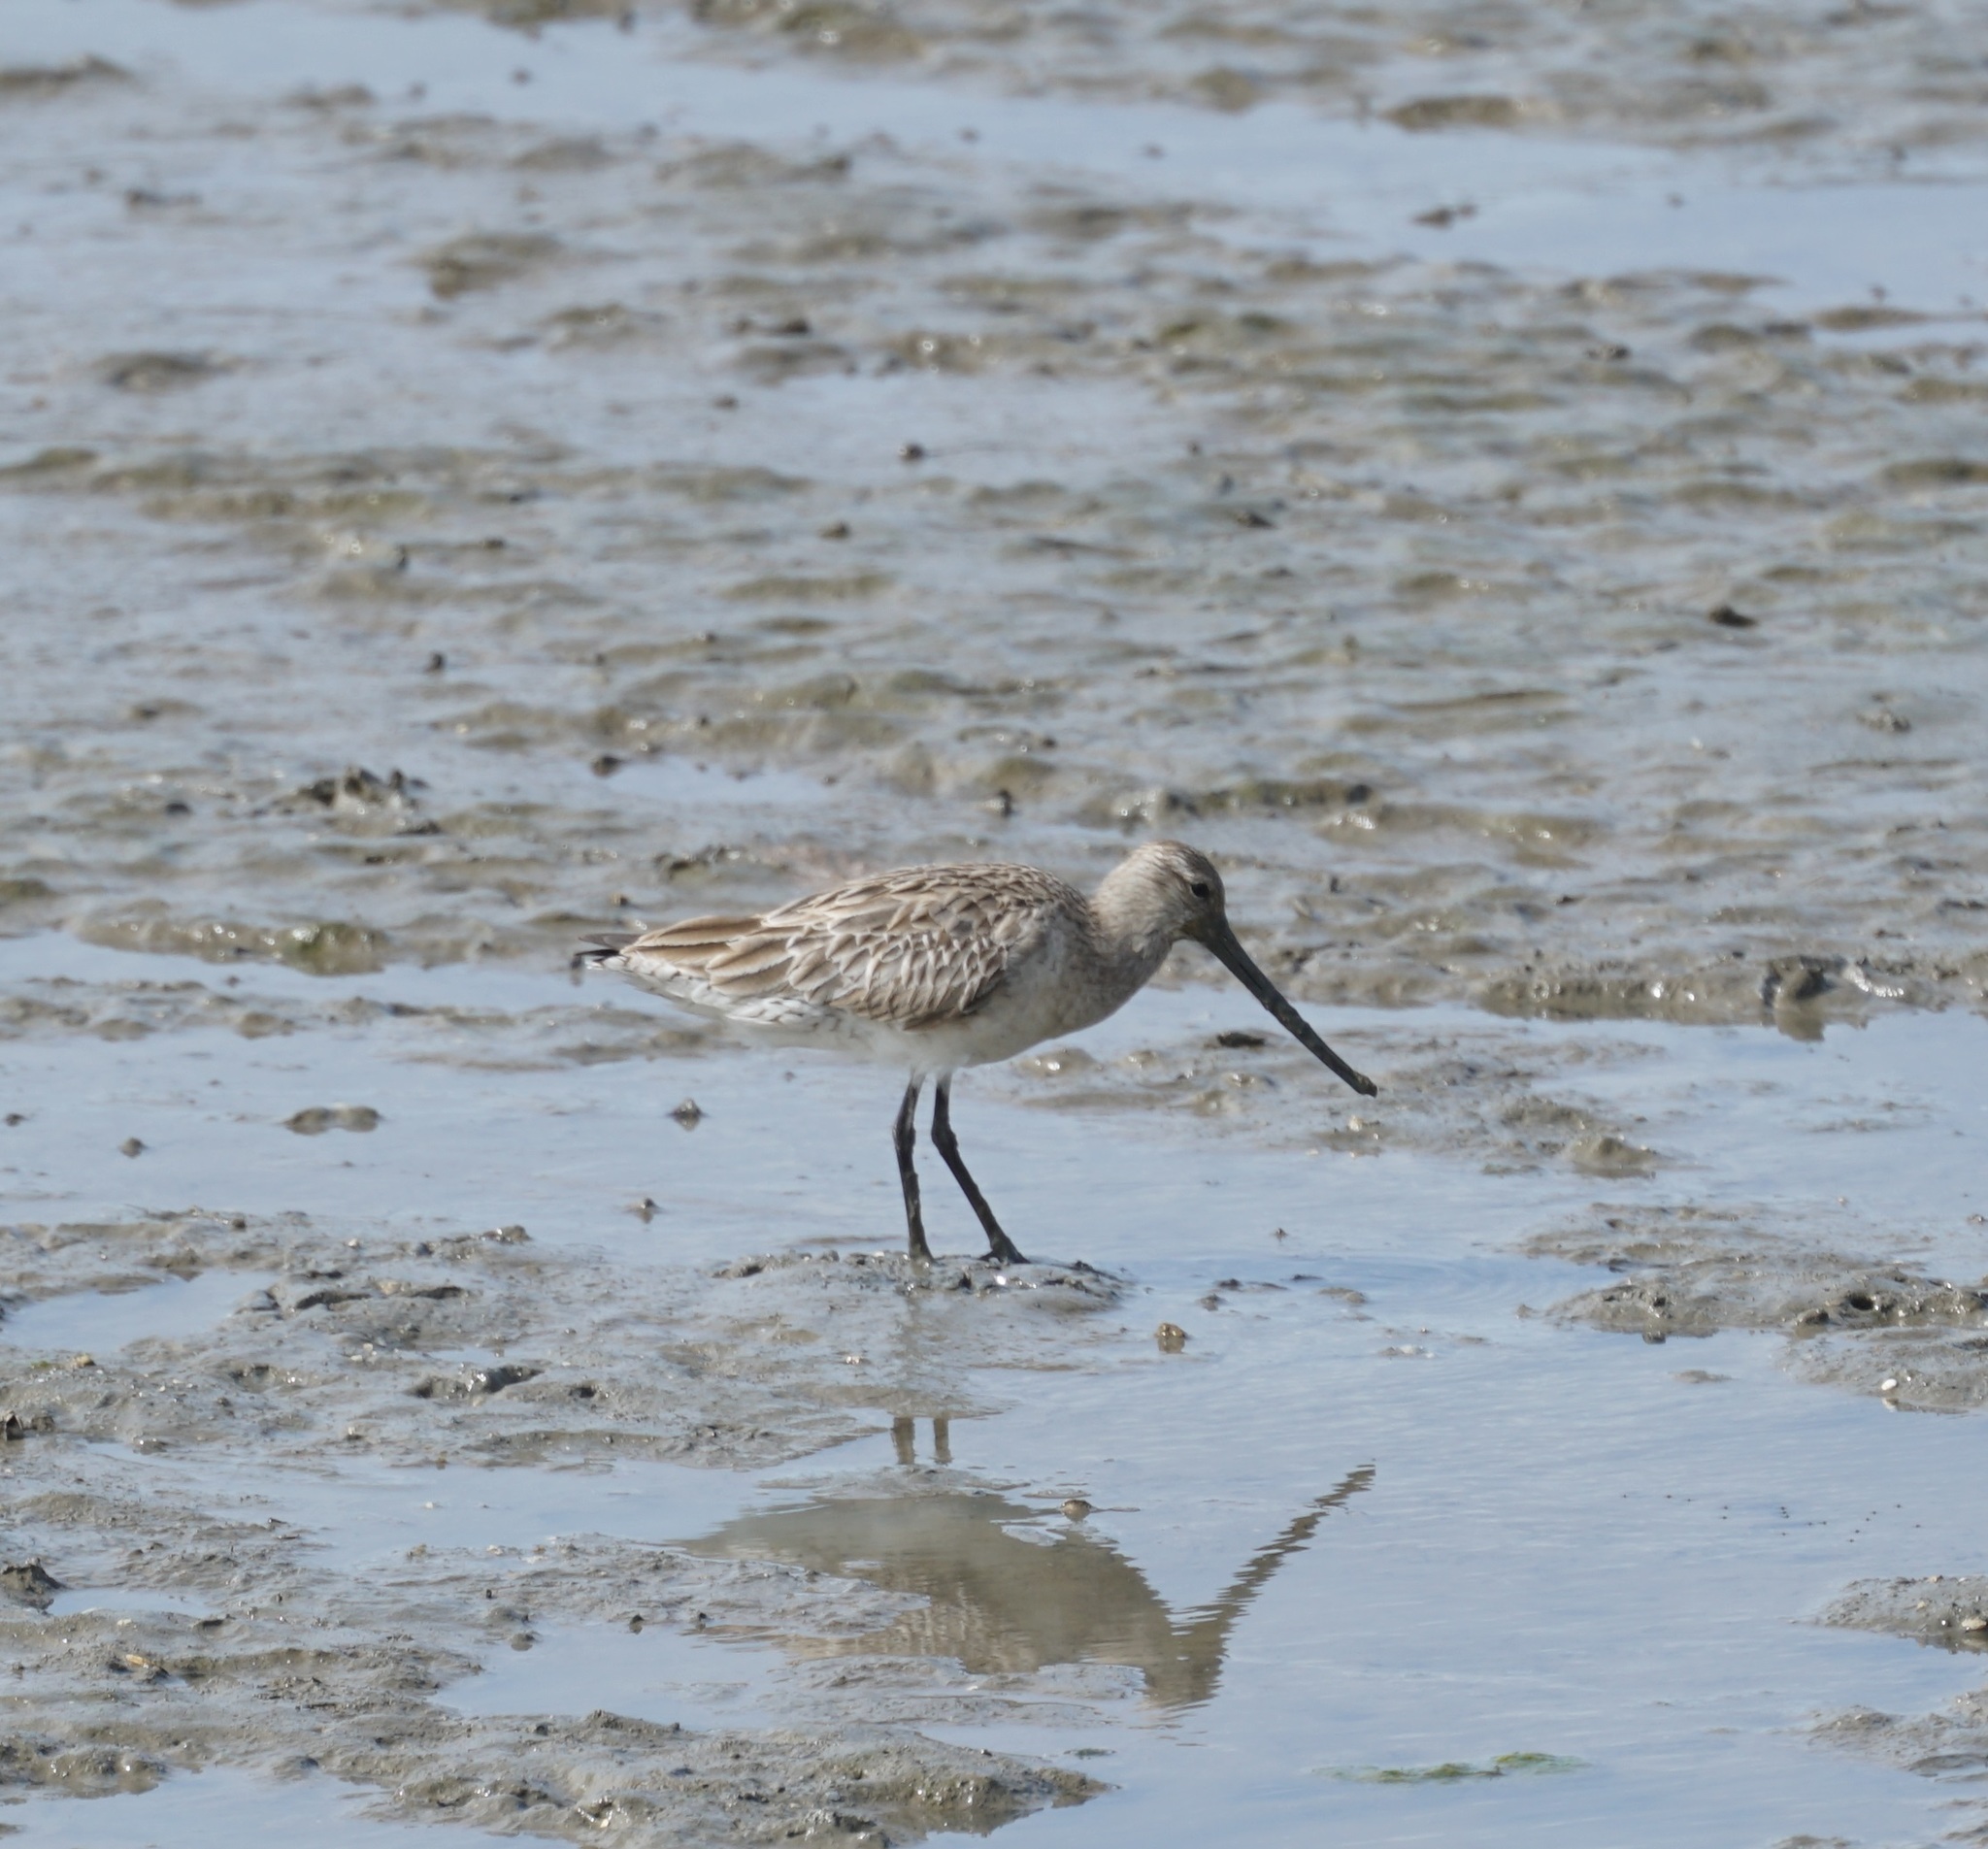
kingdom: Animalia
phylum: Chordata
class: Aves
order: Charadriiformes
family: Scolopacidae
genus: Limosa
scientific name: Limosa lapponica
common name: Bar-tailed godwit
